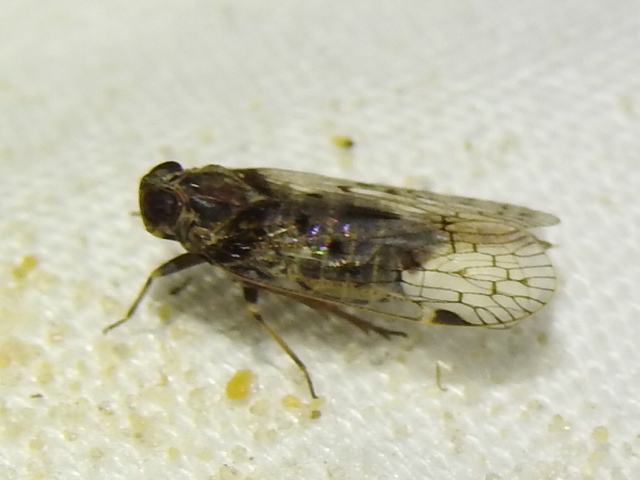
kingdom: Animalia
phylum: Arthropoda
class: Insecta
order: Hemiptera
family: Cixiidae
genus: Melanoliarus
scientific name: Melanoliarus aridus
